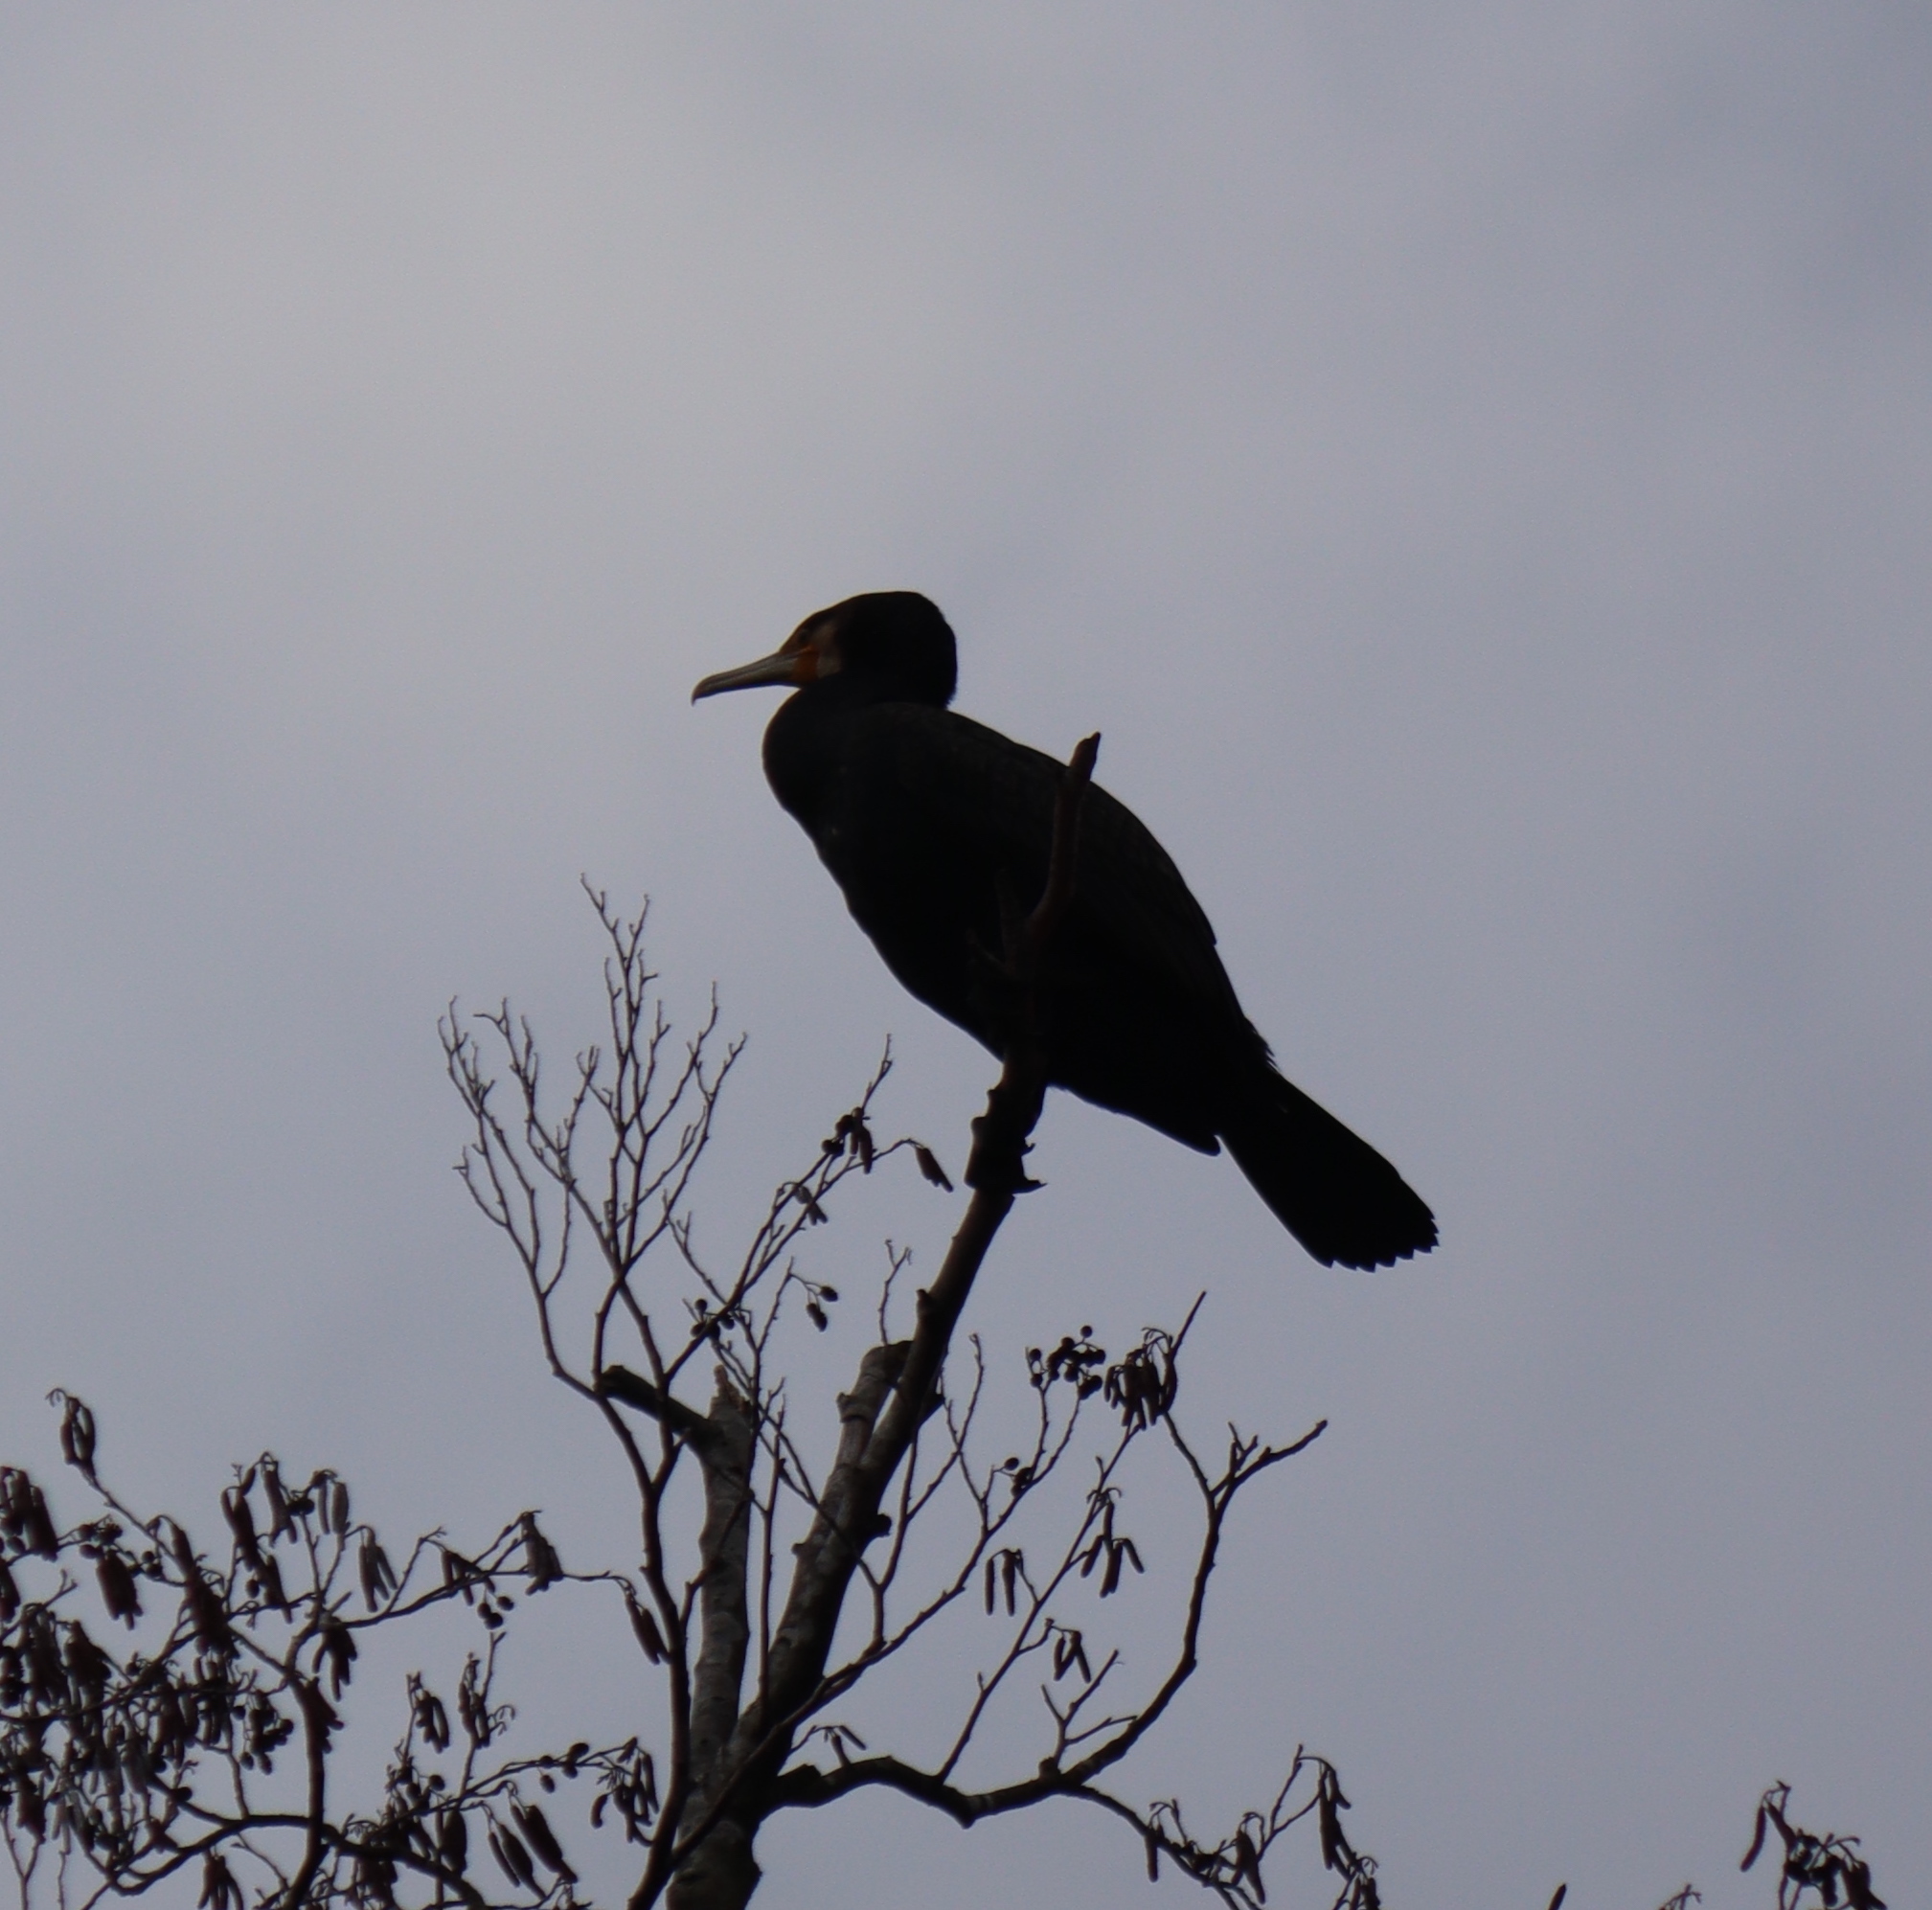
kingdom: Animalia
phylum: Chordata
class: Aves
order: Suliformes
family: Phalacrocoracidae
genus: Phalacrocorax
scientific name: Phalacrocorax carbo
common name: Great cormorant
